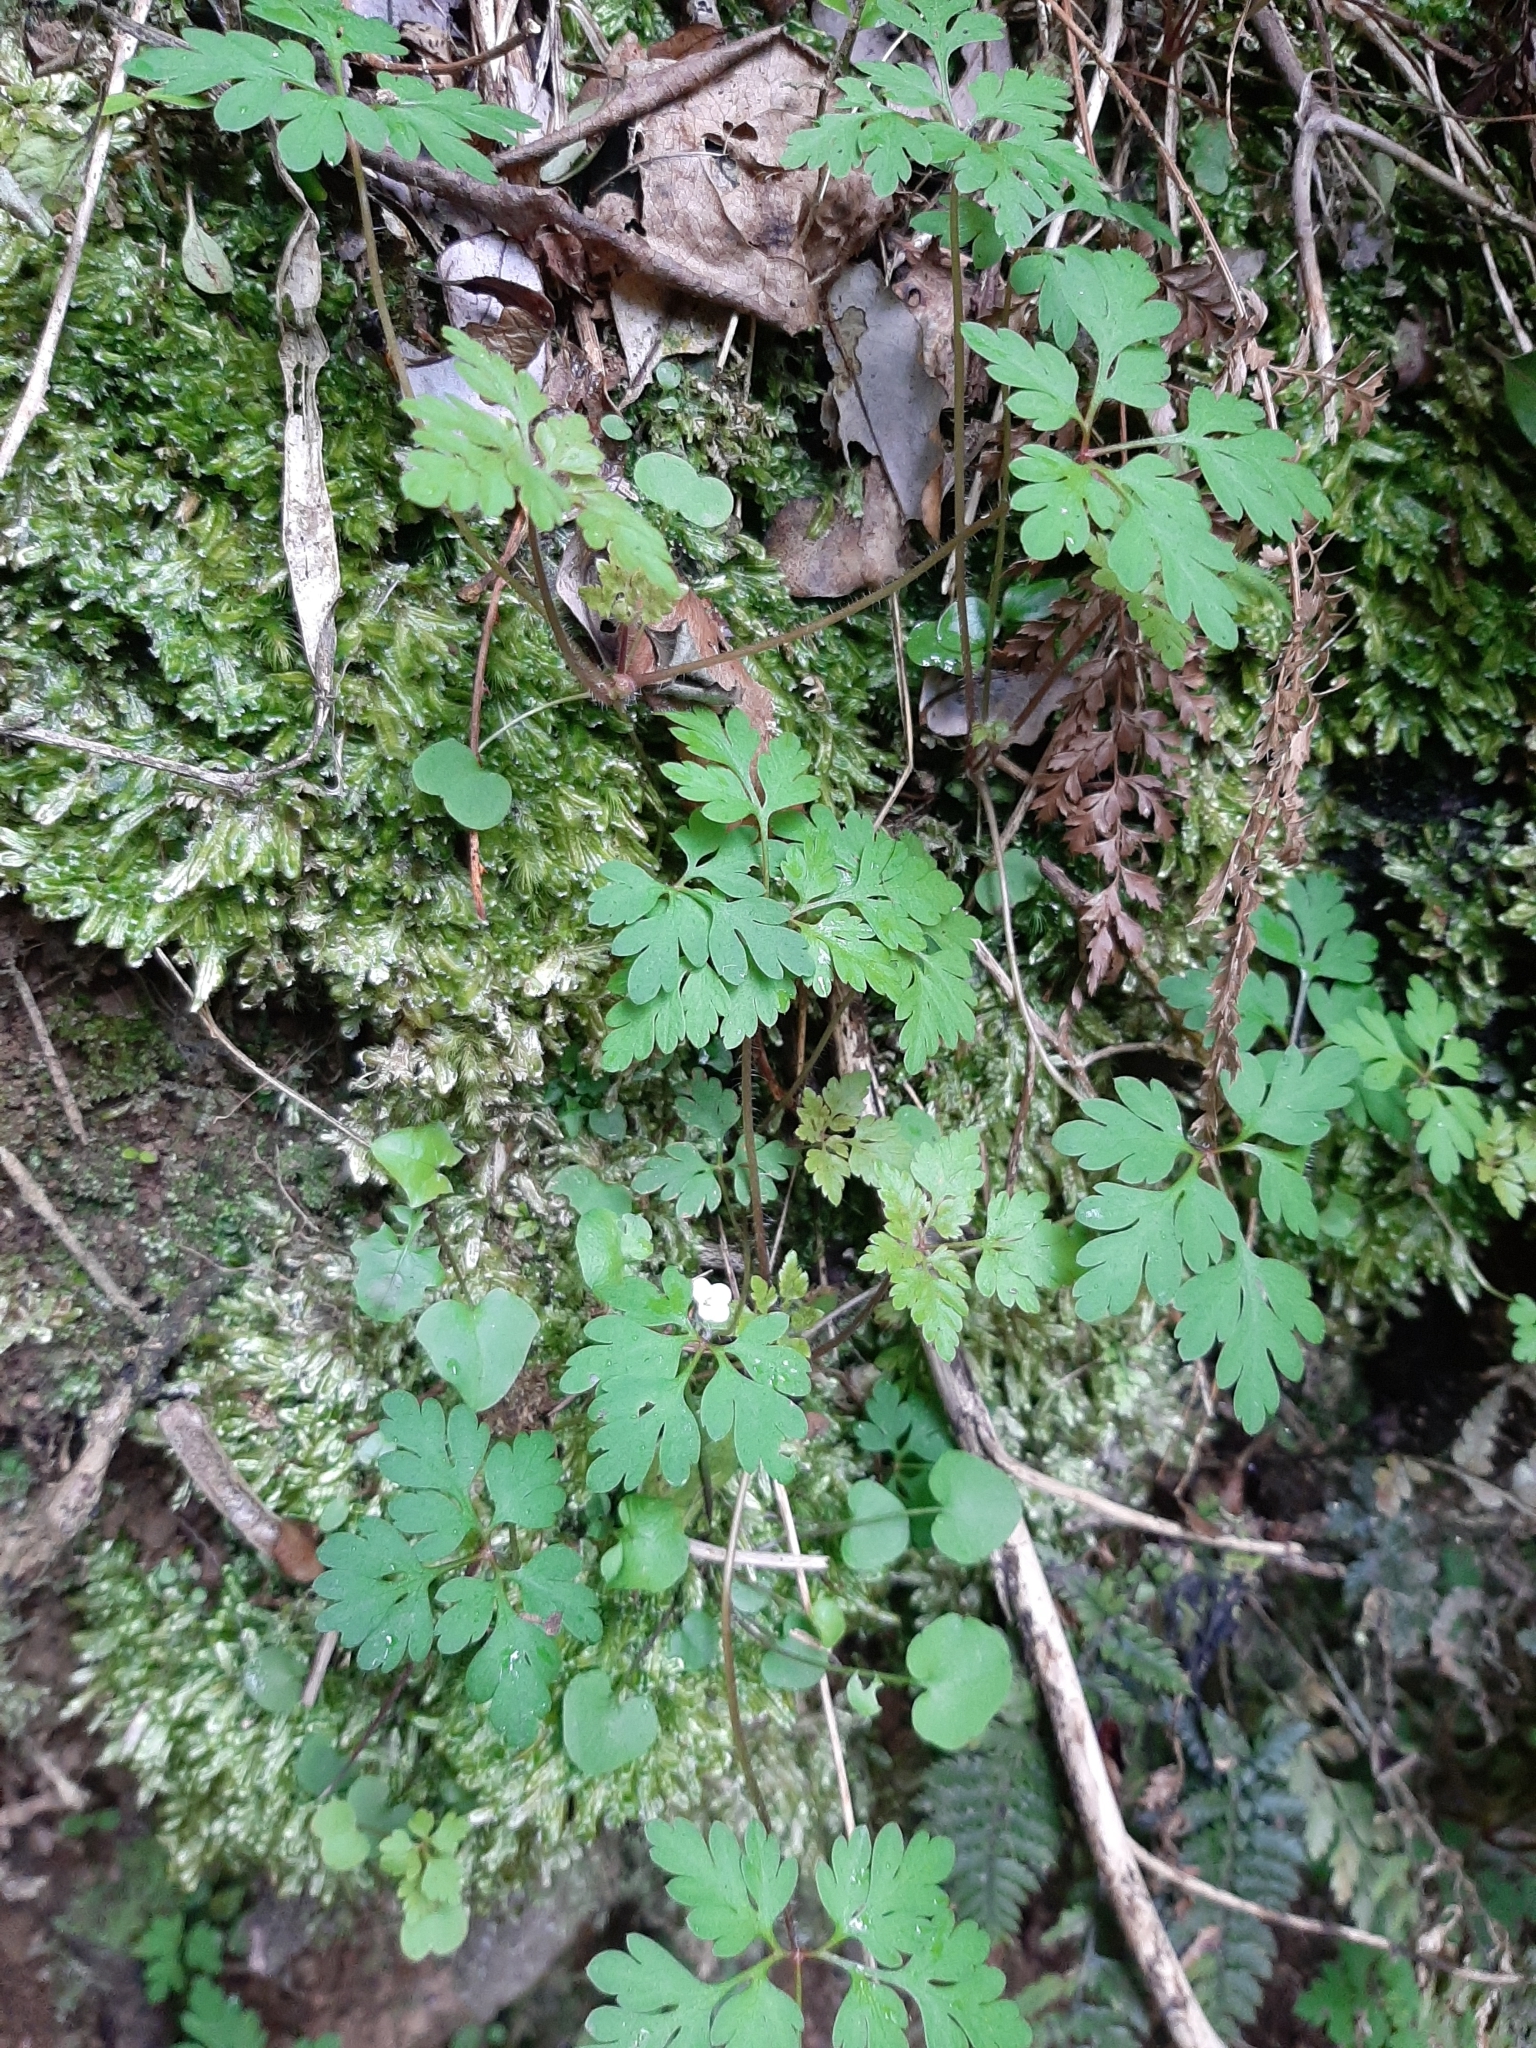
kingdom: Plantae
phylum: Tracheophyta
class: Magnoliopsida
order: Geraniales
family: Geraniaceae
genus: Geranium
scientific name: Geranium robertianum
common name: Herb-robert
